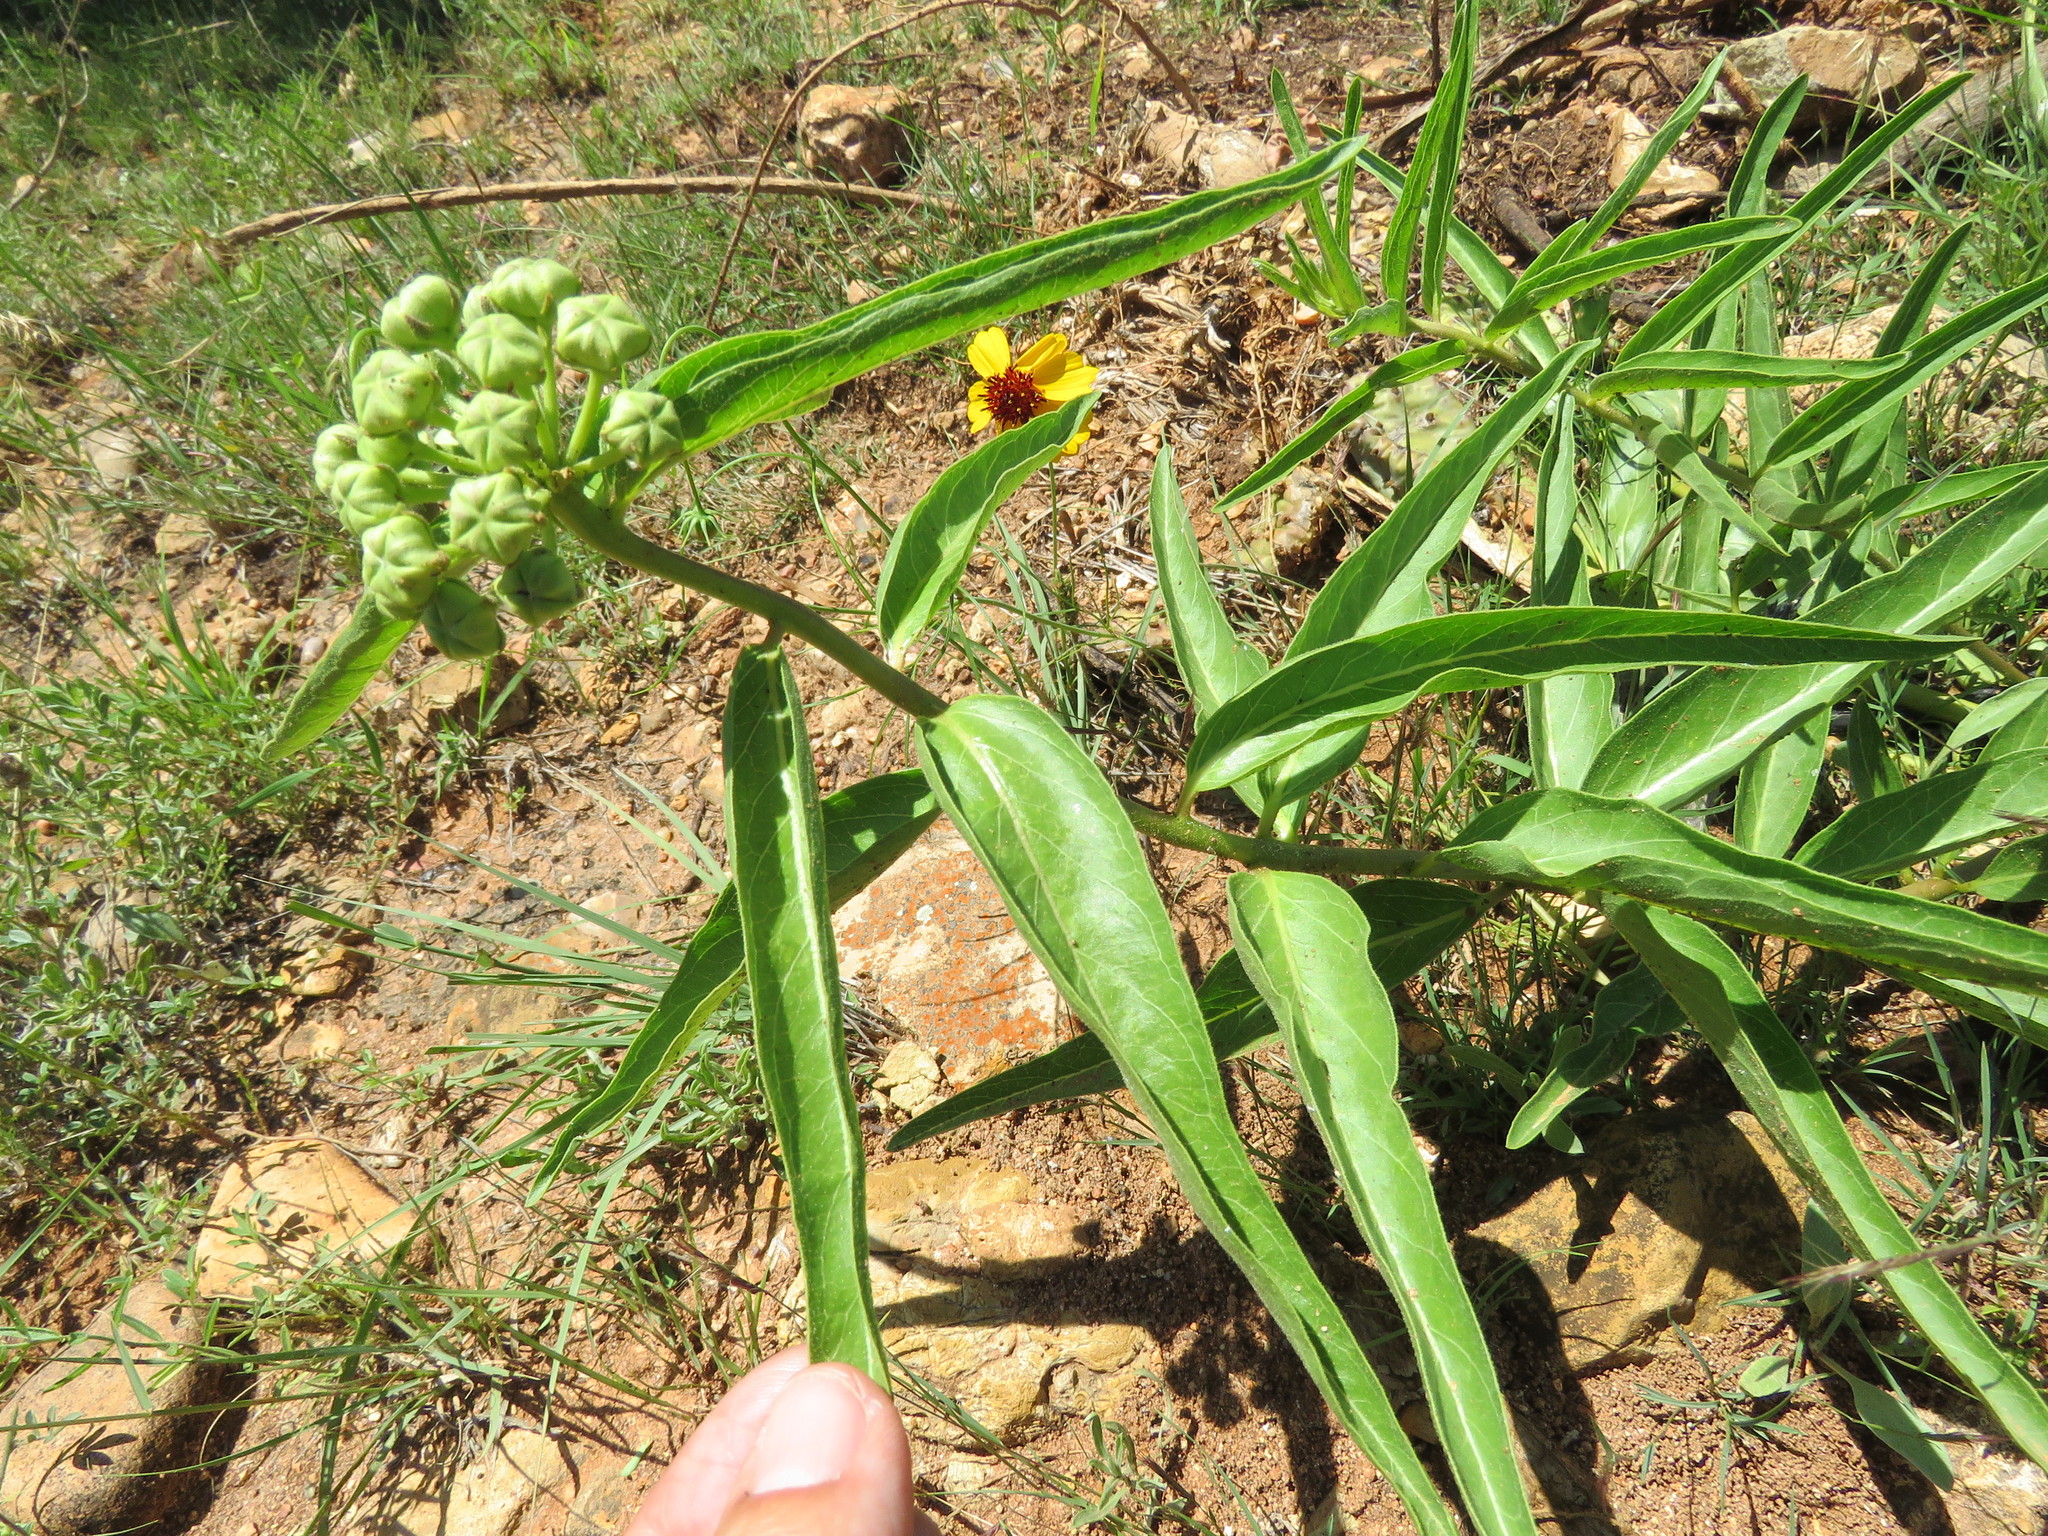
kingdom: Plantae
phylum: Tracheophyta
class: Magnoliopsida
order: Gentianales
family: Apocynaceae
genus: Asclepias
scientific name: Asclepias asperula
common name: Antelope horns
